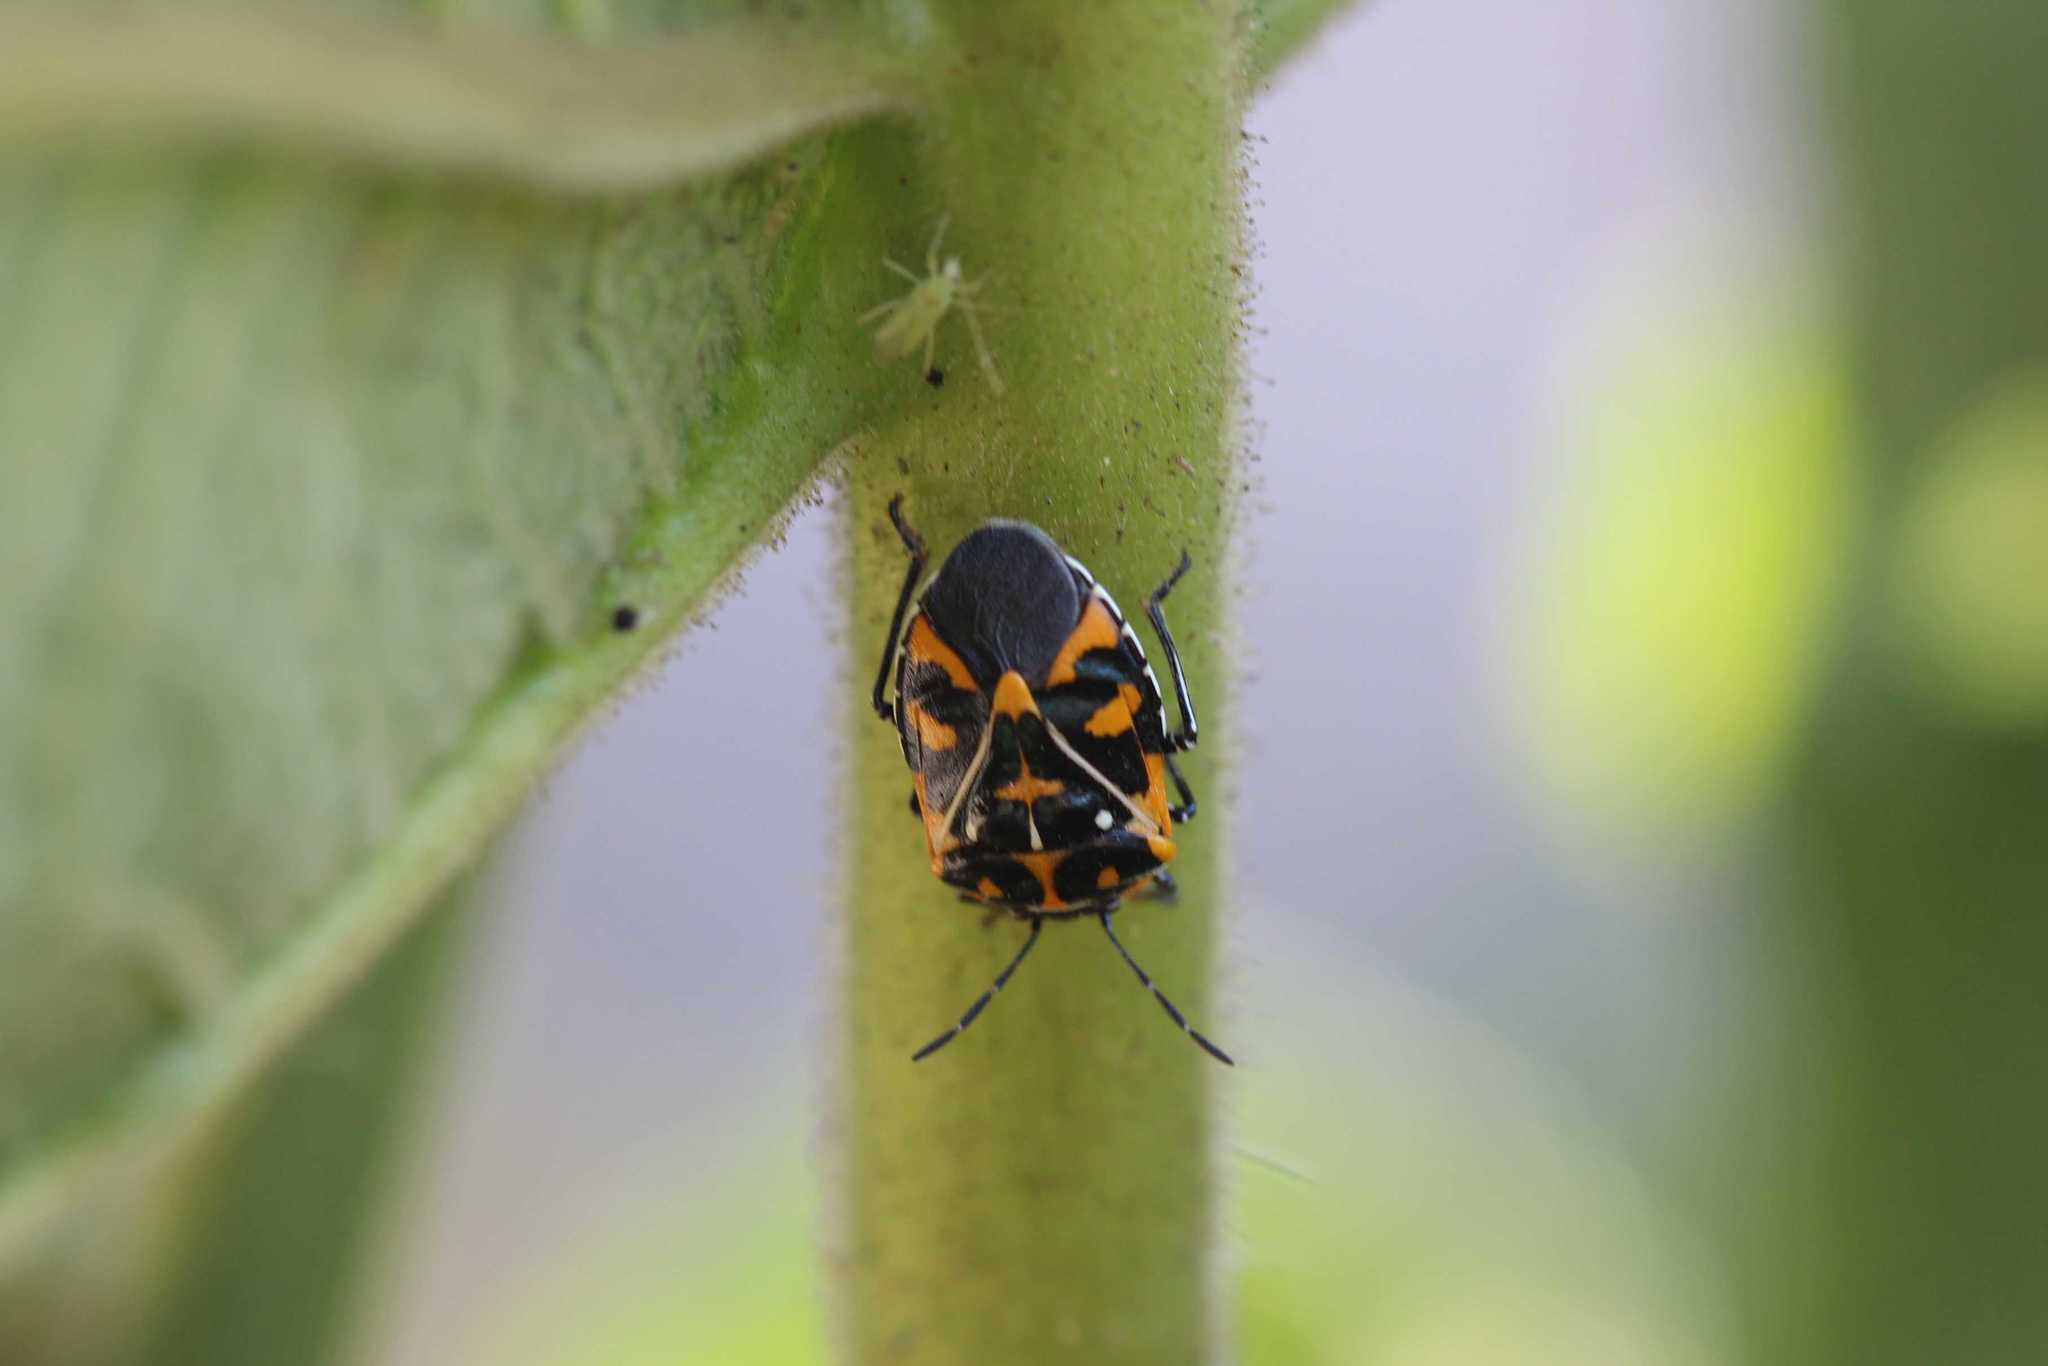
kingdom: Animalia
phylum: Arthropoda
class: Insecta
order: Hemiptera
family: Pentatomidae
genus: Murgantia
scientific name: Murgantia histrionica
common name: Harlequin bug
